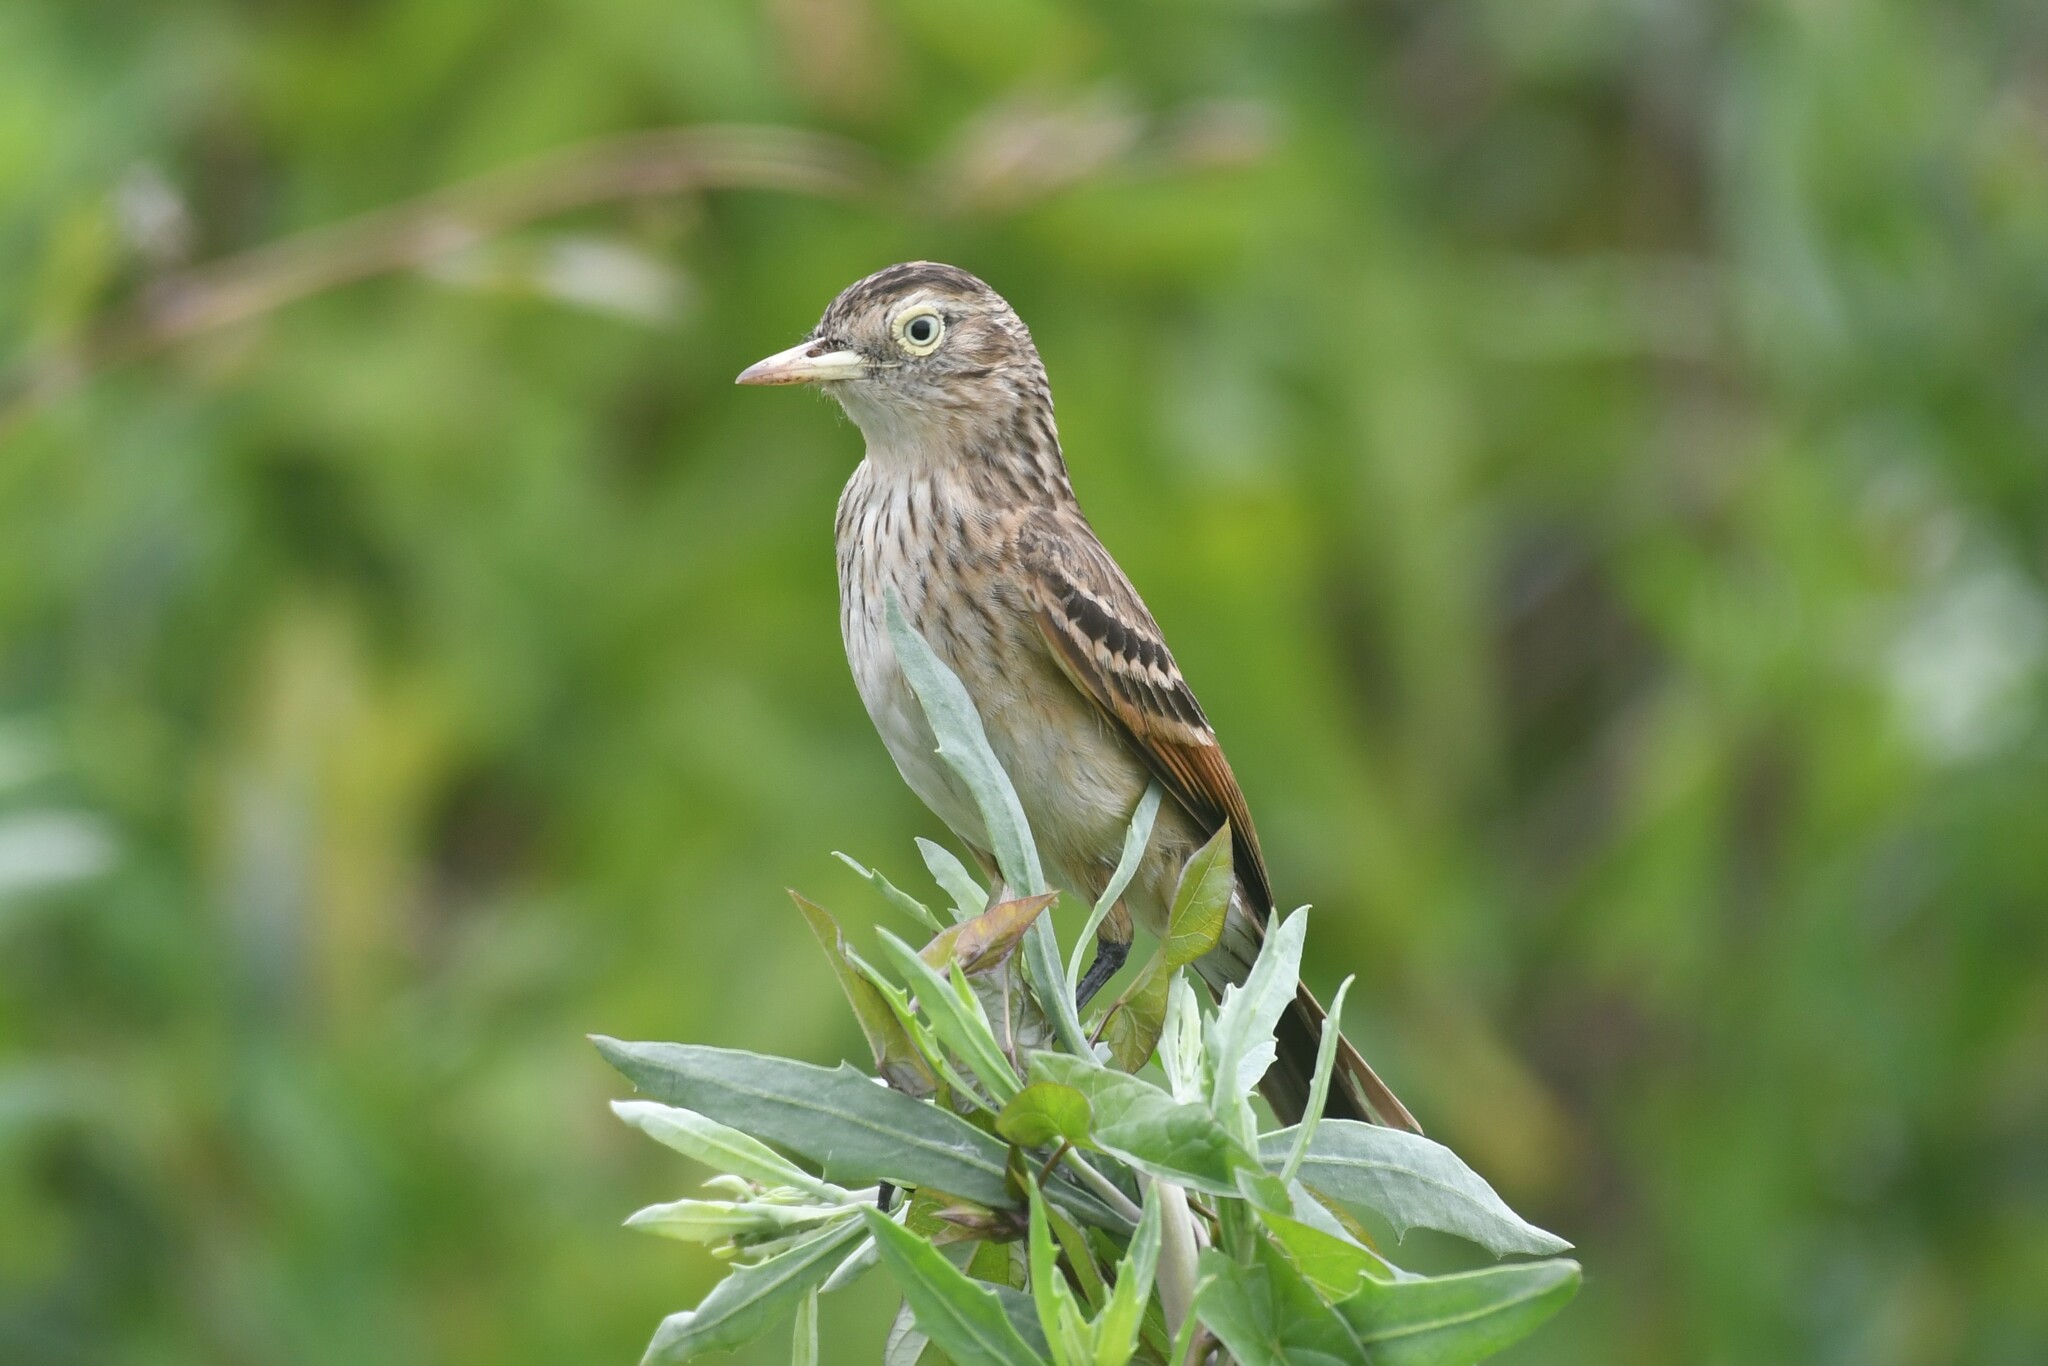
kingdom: Animalia
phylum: Chordata
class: Aves
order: Passeriformes
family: Tyrannidae
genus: Hymenops
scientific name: Hymenops perspicillatus
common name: Spectacled tyrant
